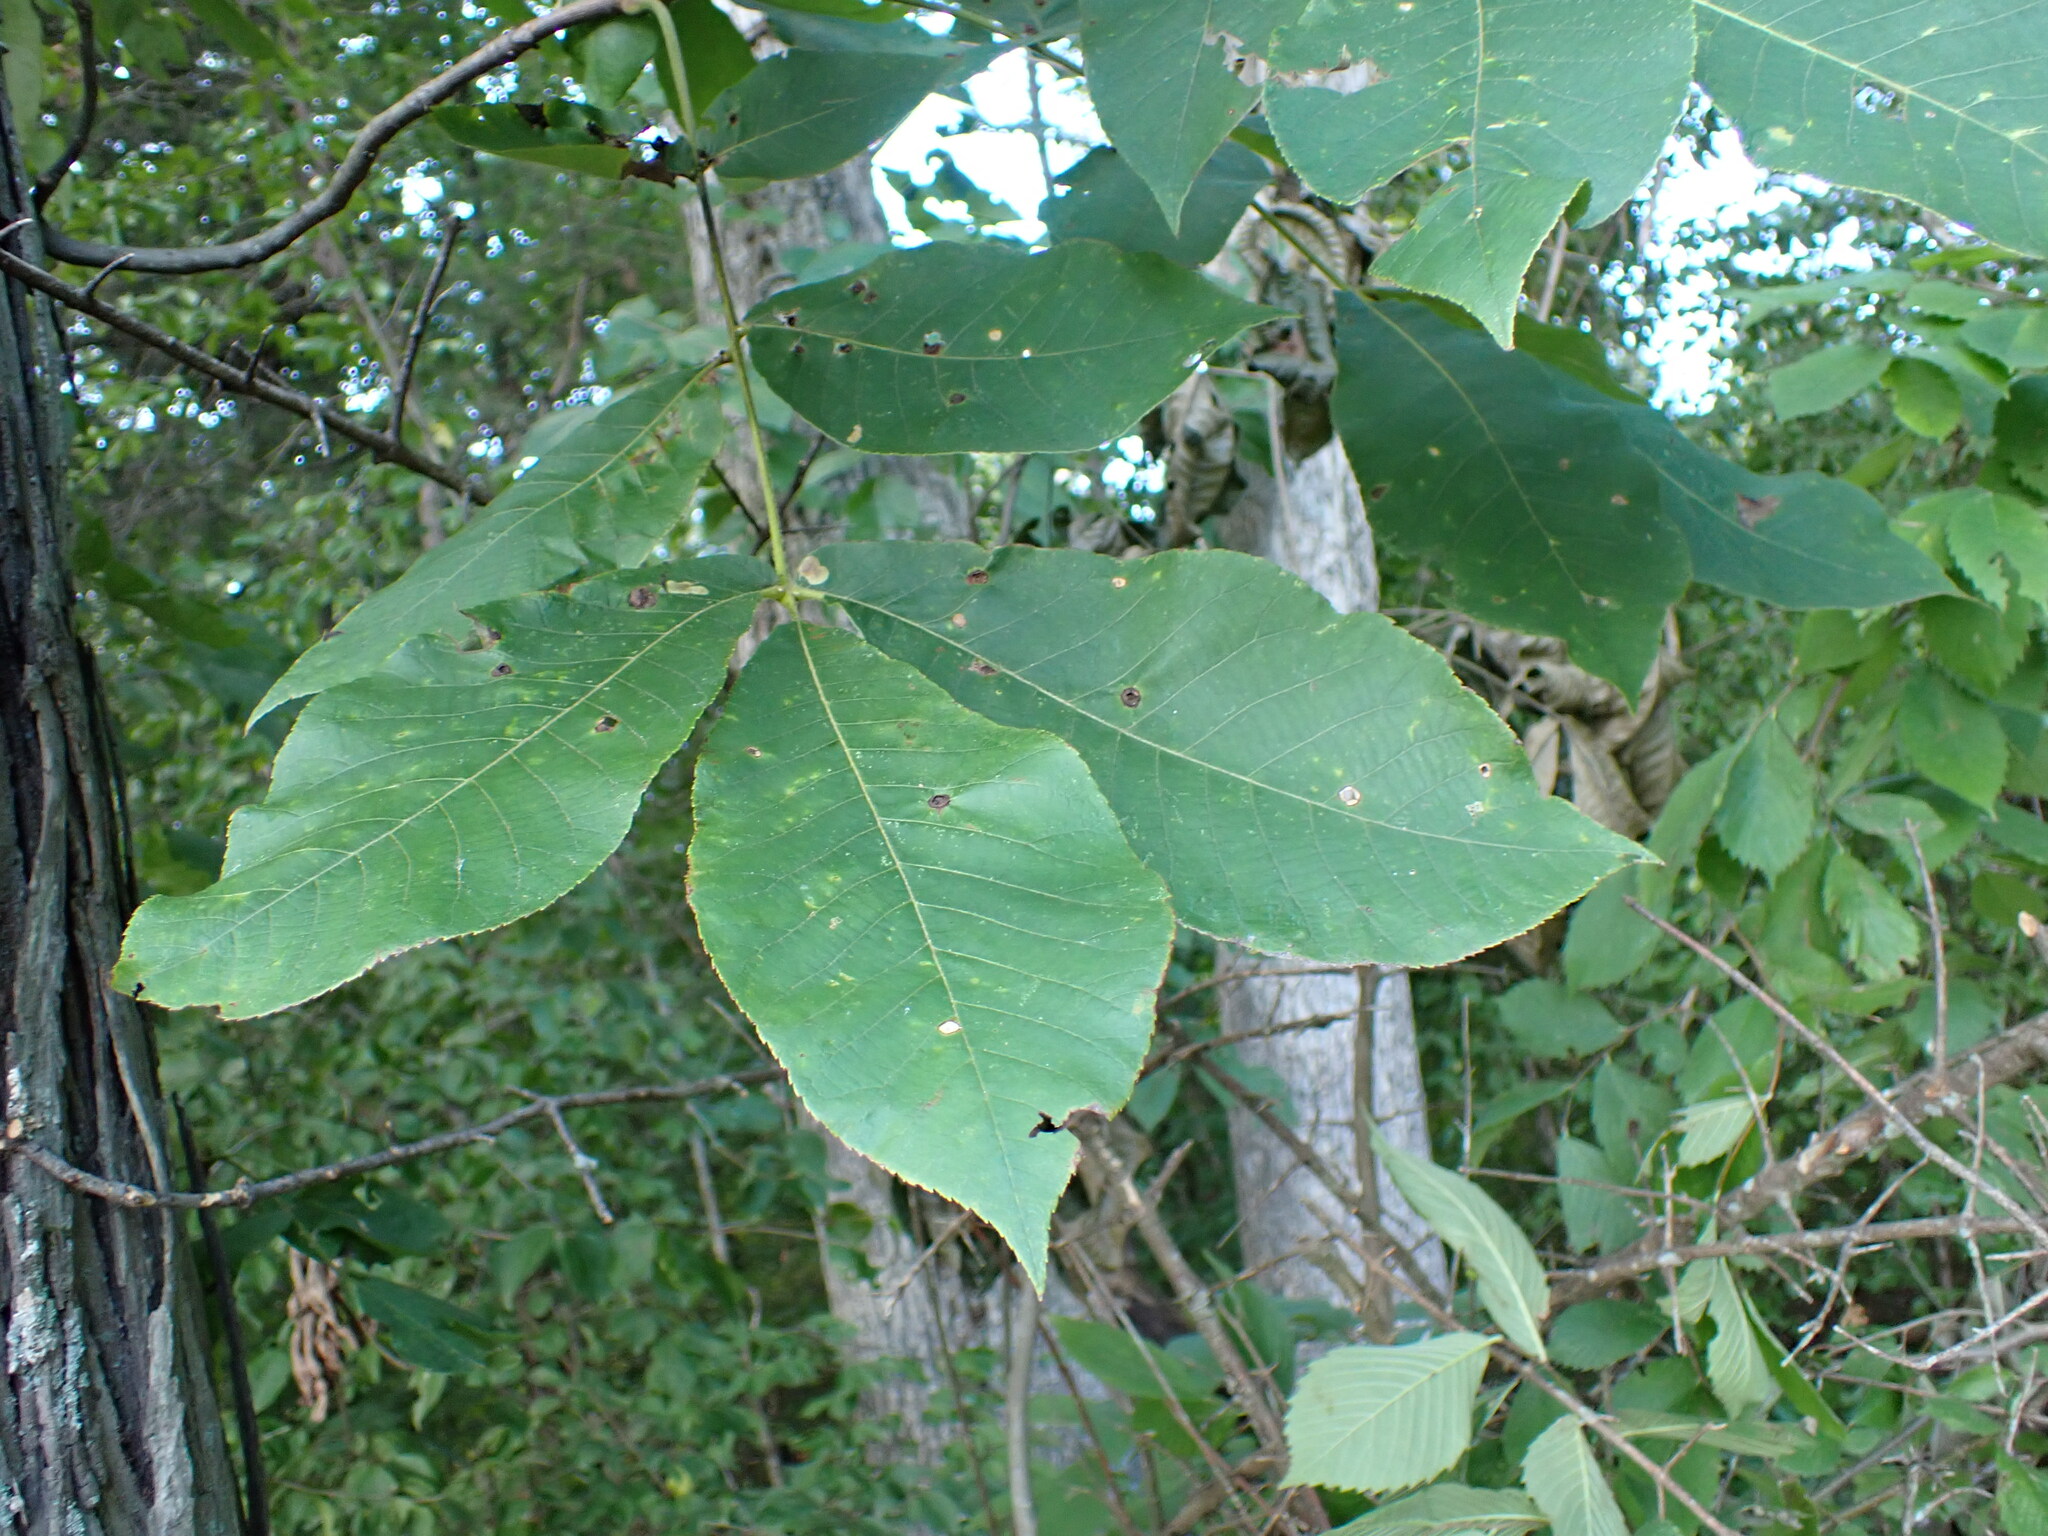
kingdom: Plantae
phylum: Tracheophyta
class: Magnoliopsida
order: Fagales
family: Juglandaceae
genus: Carya
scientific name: Carya ovata
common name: Shagbark hickory
